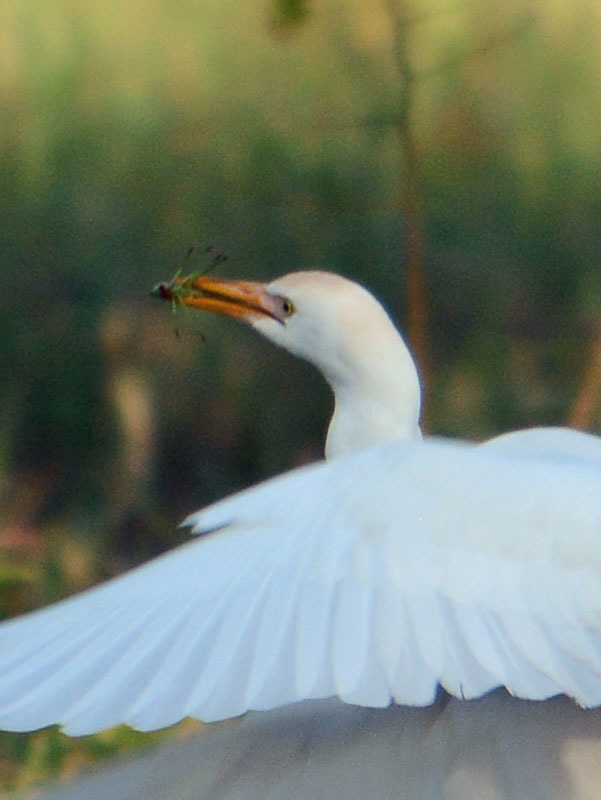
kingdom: Animalia
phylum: Chordata
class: Aves
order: Pelecaniformes
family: Ardeidae
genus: Bubulcus
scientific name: Bubulcus ibis
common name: Cattle egret
